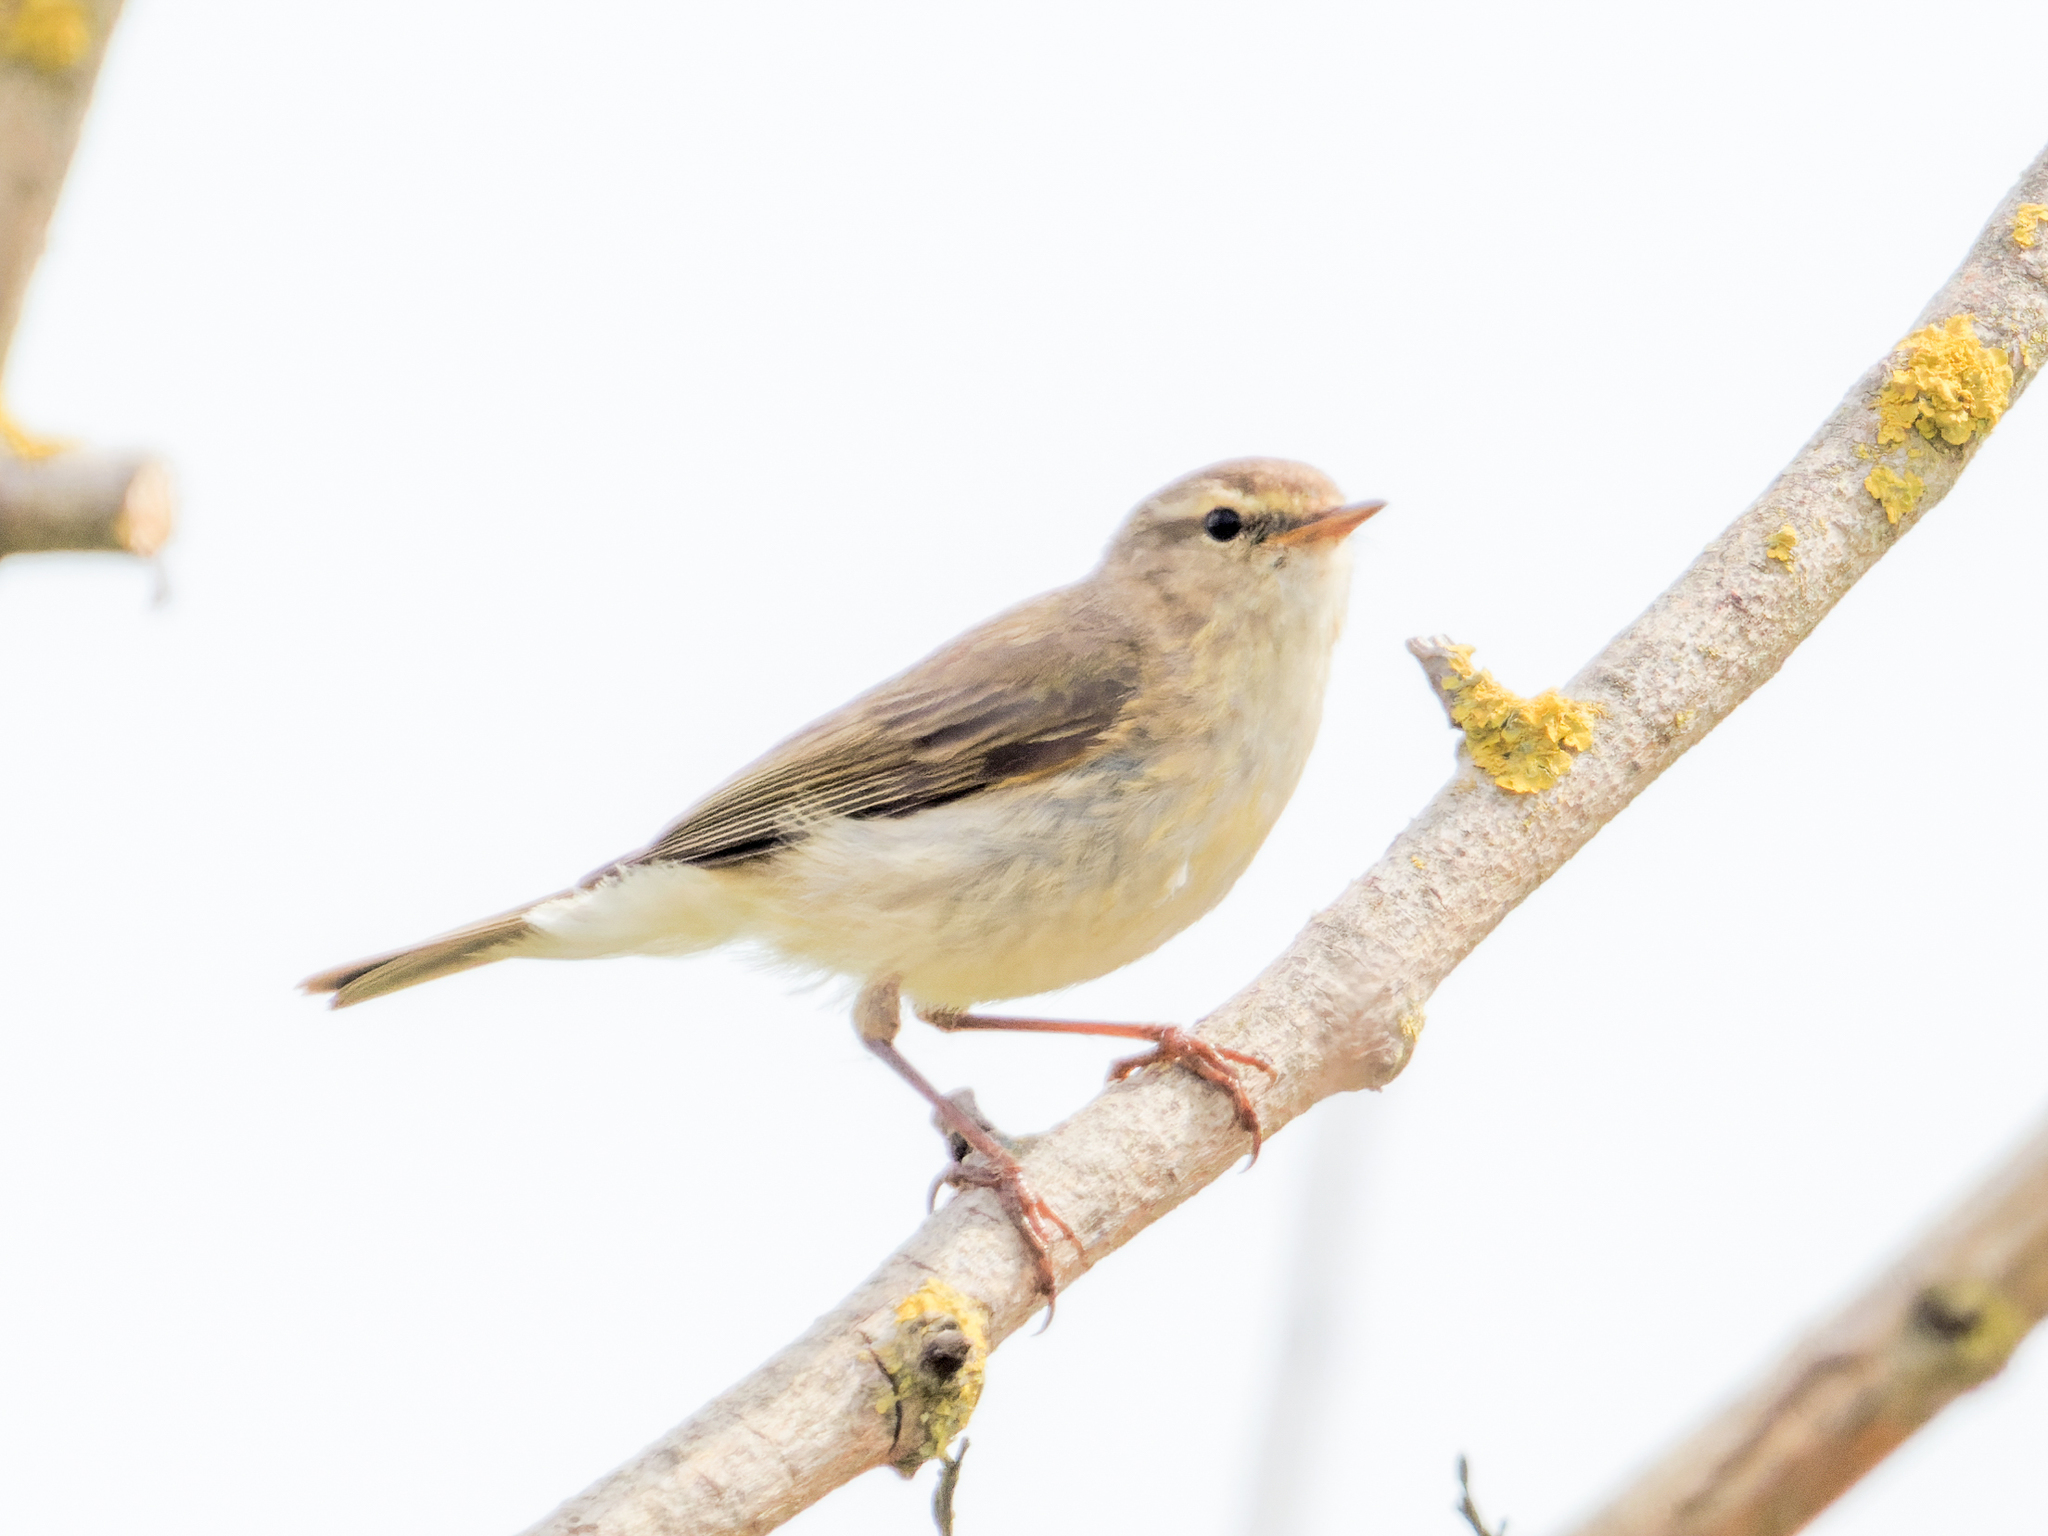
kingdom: Animalia
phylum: Chordata
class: Aves
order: Passeriformes
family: Phylloscopidae
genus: Phylloscopus
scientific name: Phylloscopus collybita
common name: Common chiffchaff
